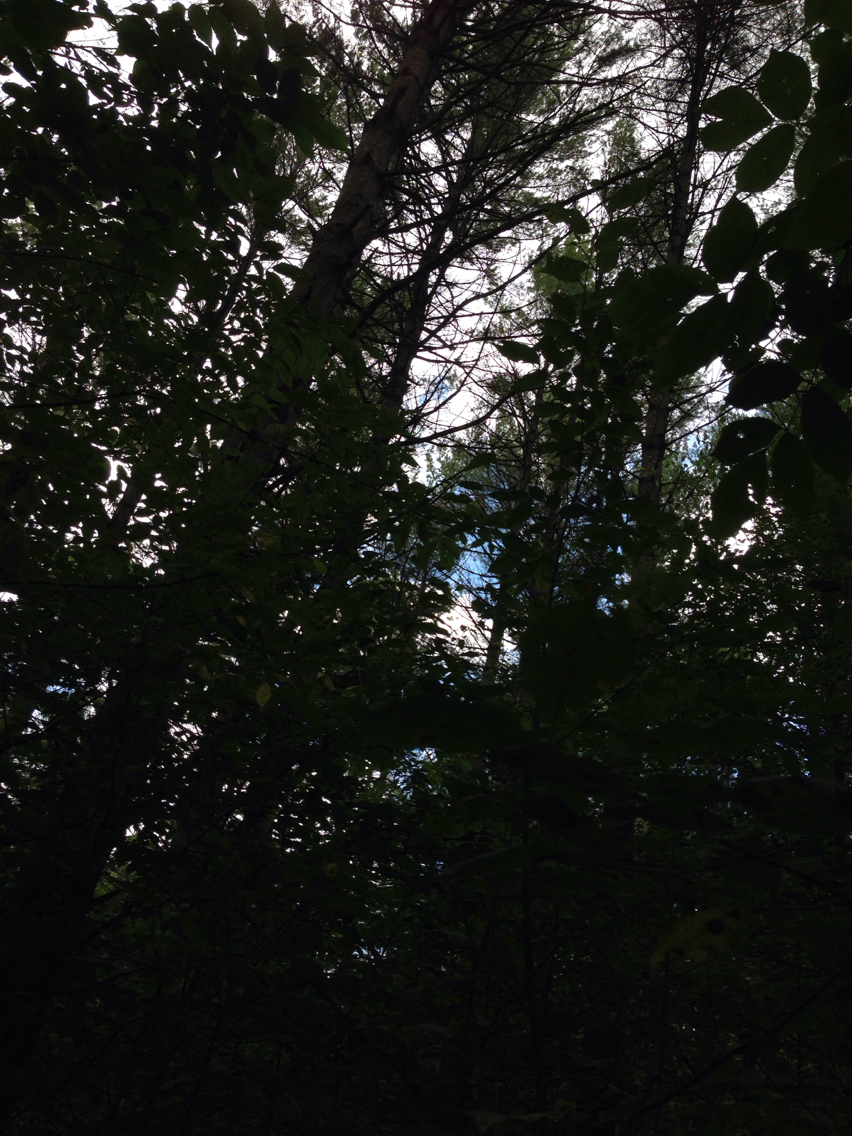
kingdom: Plantae
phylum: Tracheophyta
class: Pinopsida
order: Pinales
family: Pinaceae
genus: Pinus
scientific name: Pinus strobus
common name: Weymouth pine
